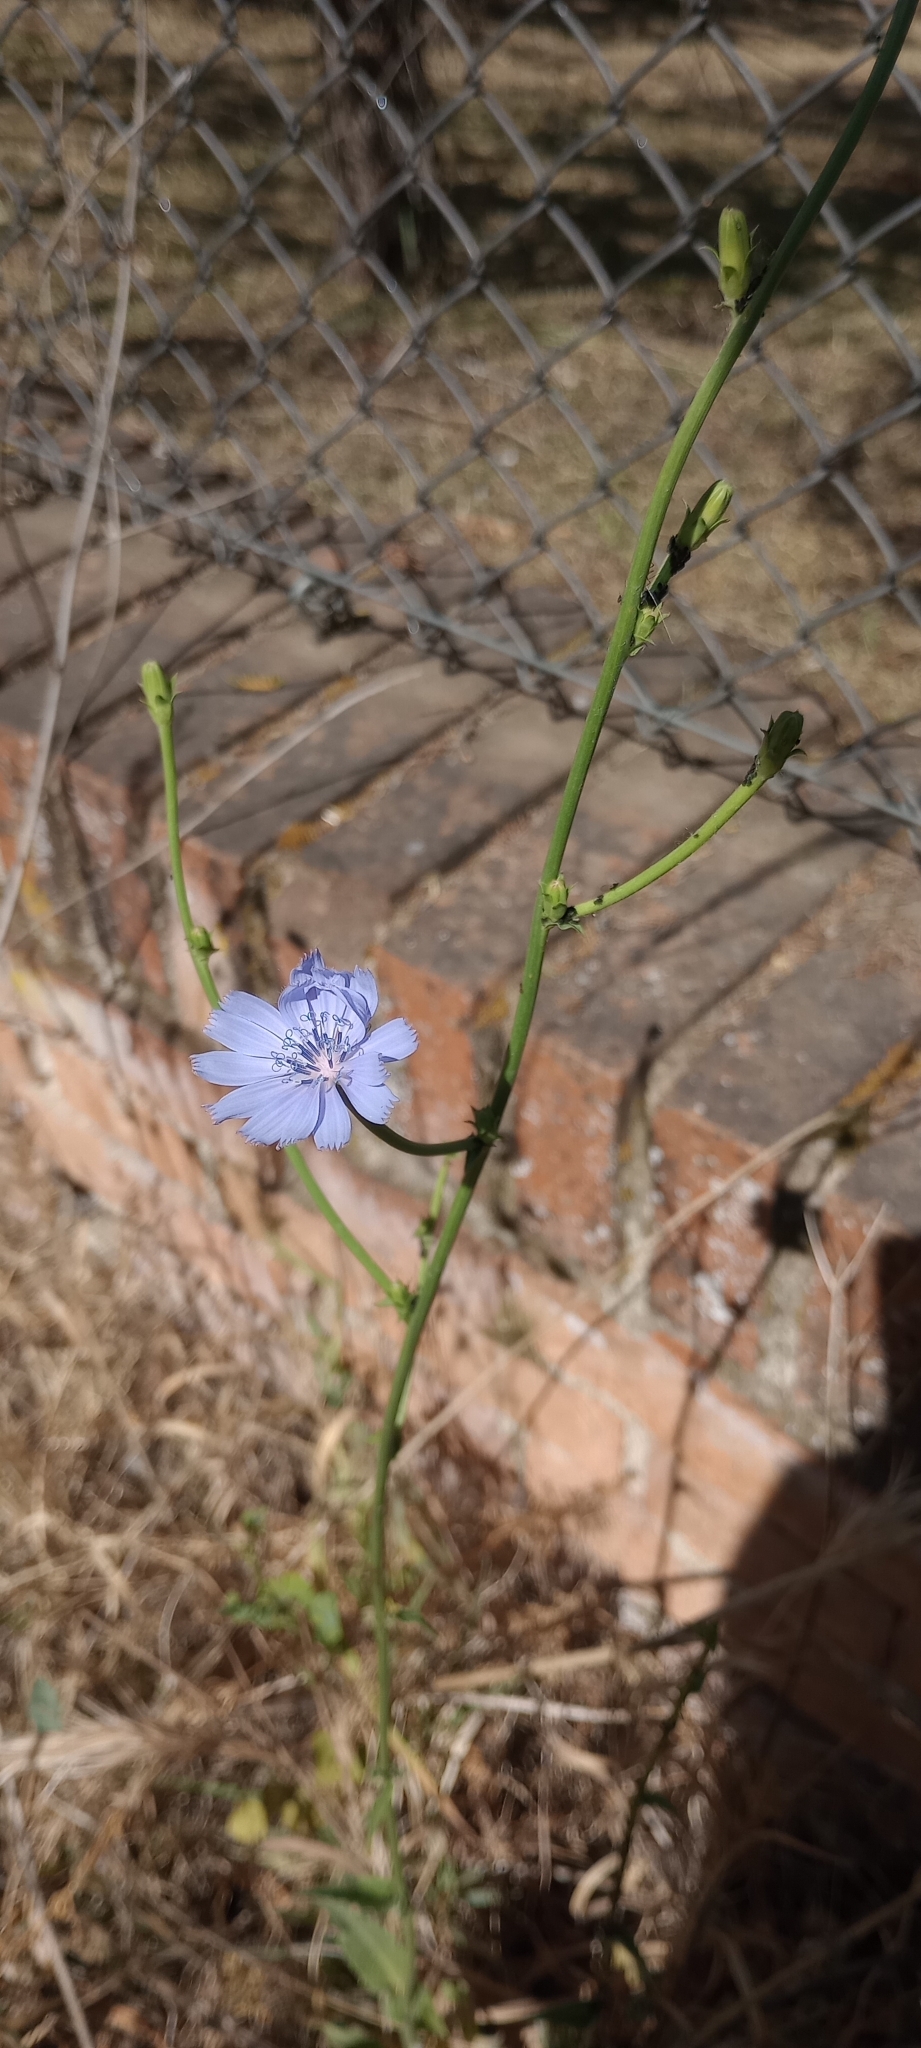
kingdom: Plantae
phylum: Tracheophyta
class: Magnoliopsida
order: Asterales
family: Asteraceae
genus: Cichorium
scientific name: Cichorium intybus
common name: Chicory
